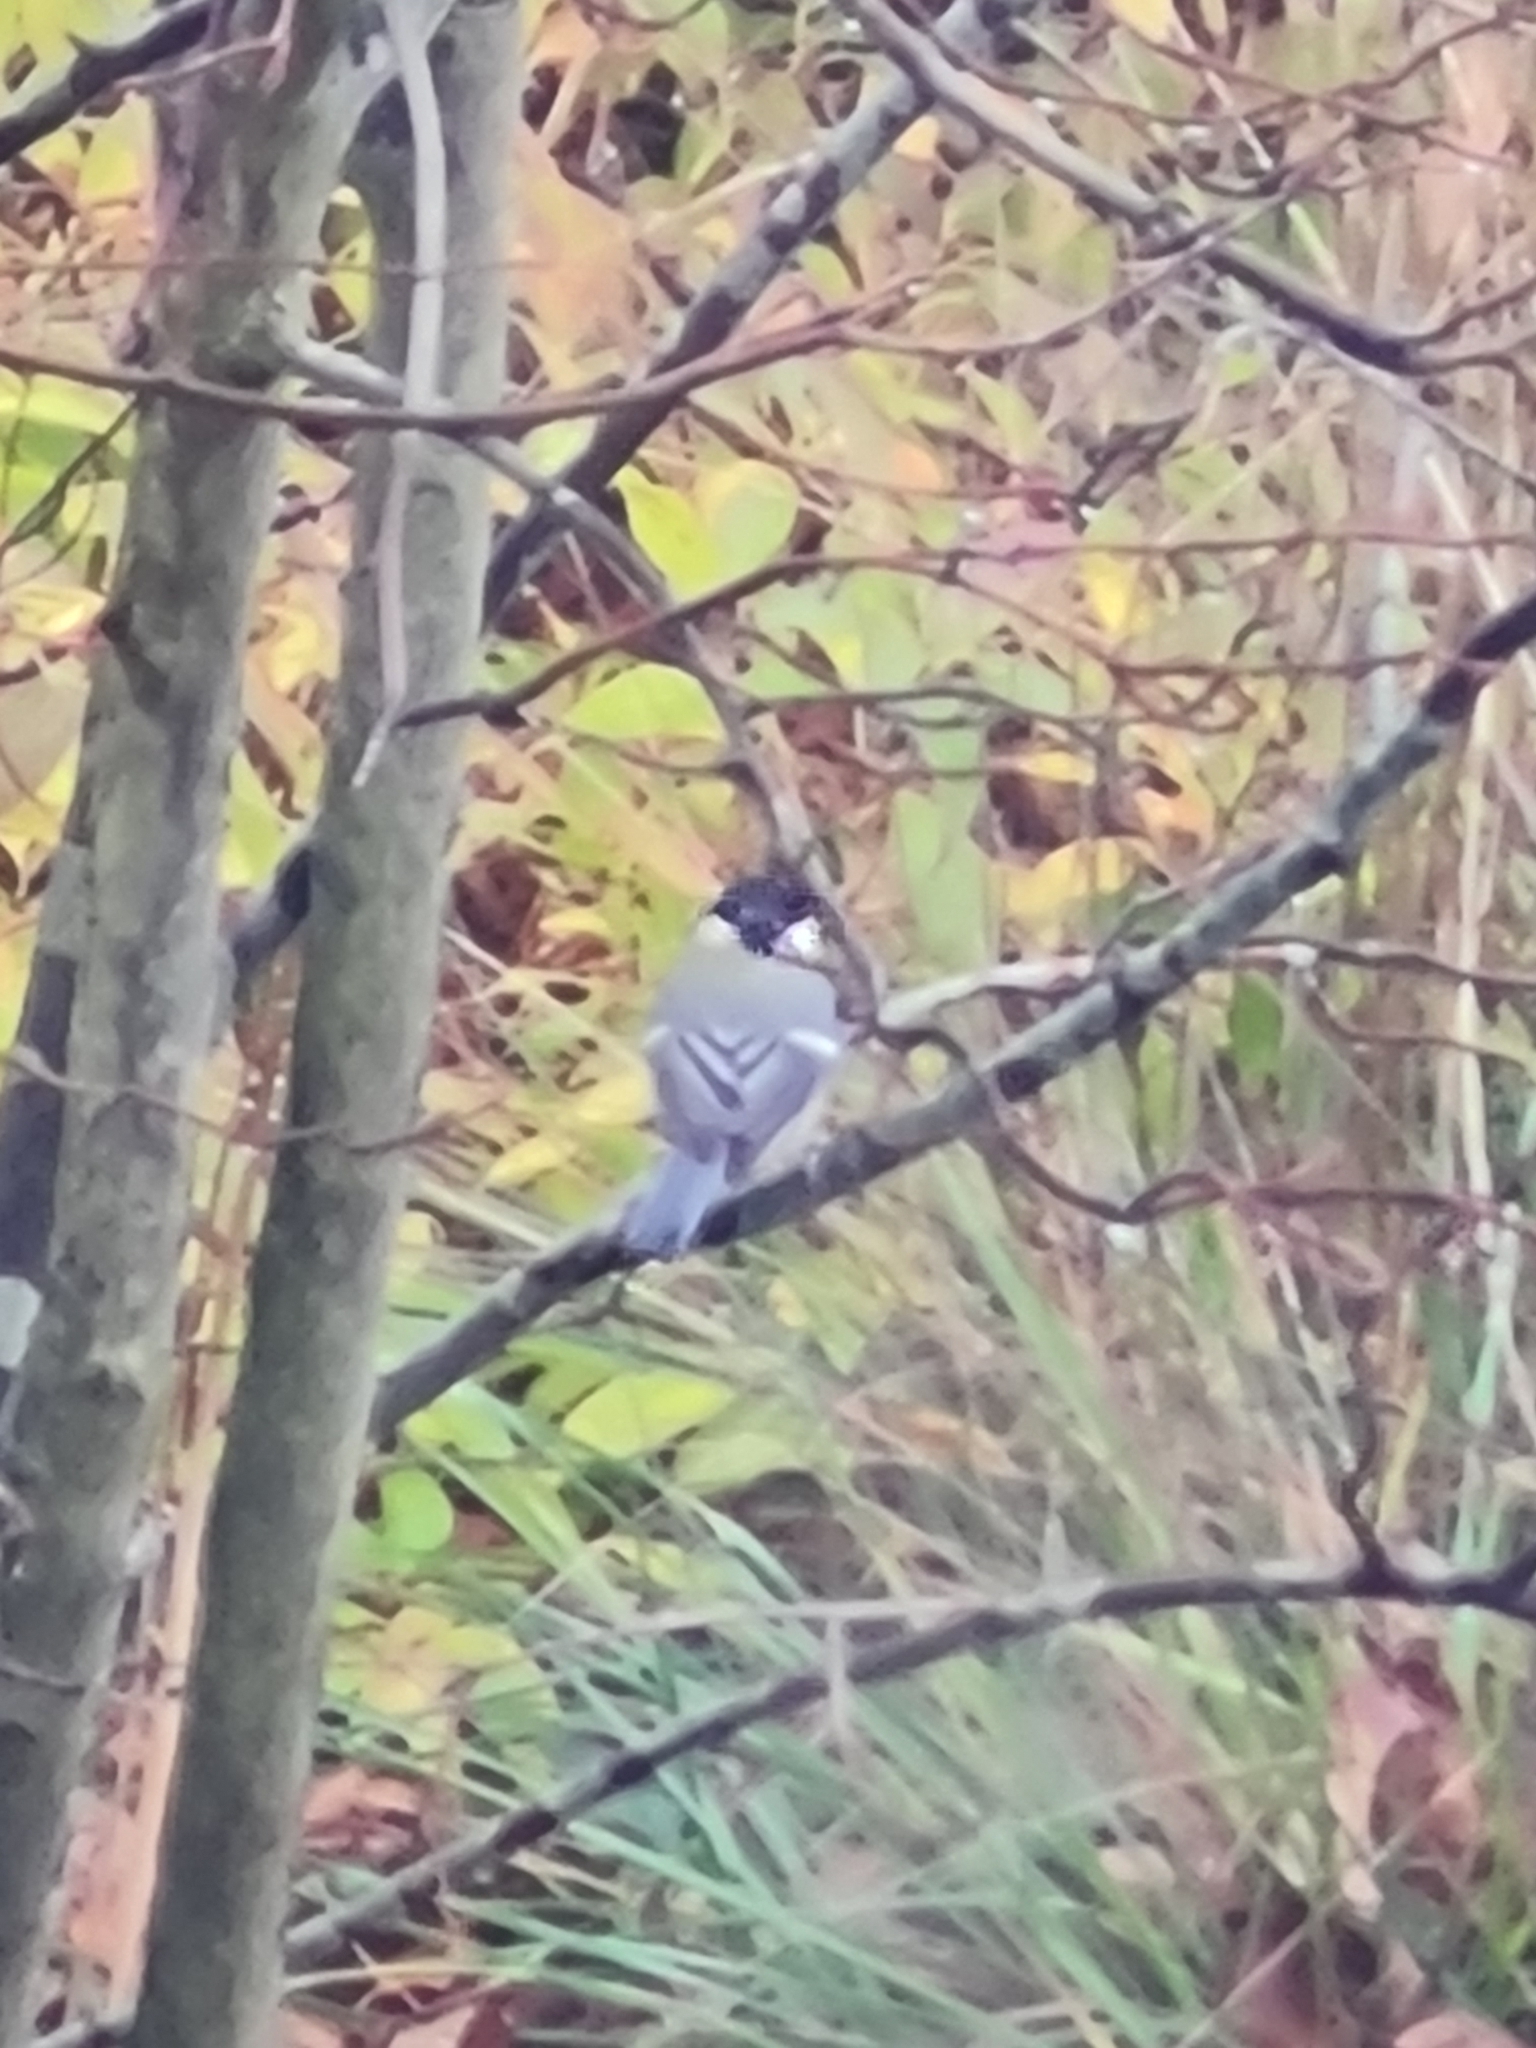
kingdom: Animalia
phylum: Chordata
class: Aves
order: Passeriformes
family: Paridae
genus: Parus
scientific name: Parus major
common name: Great tit
